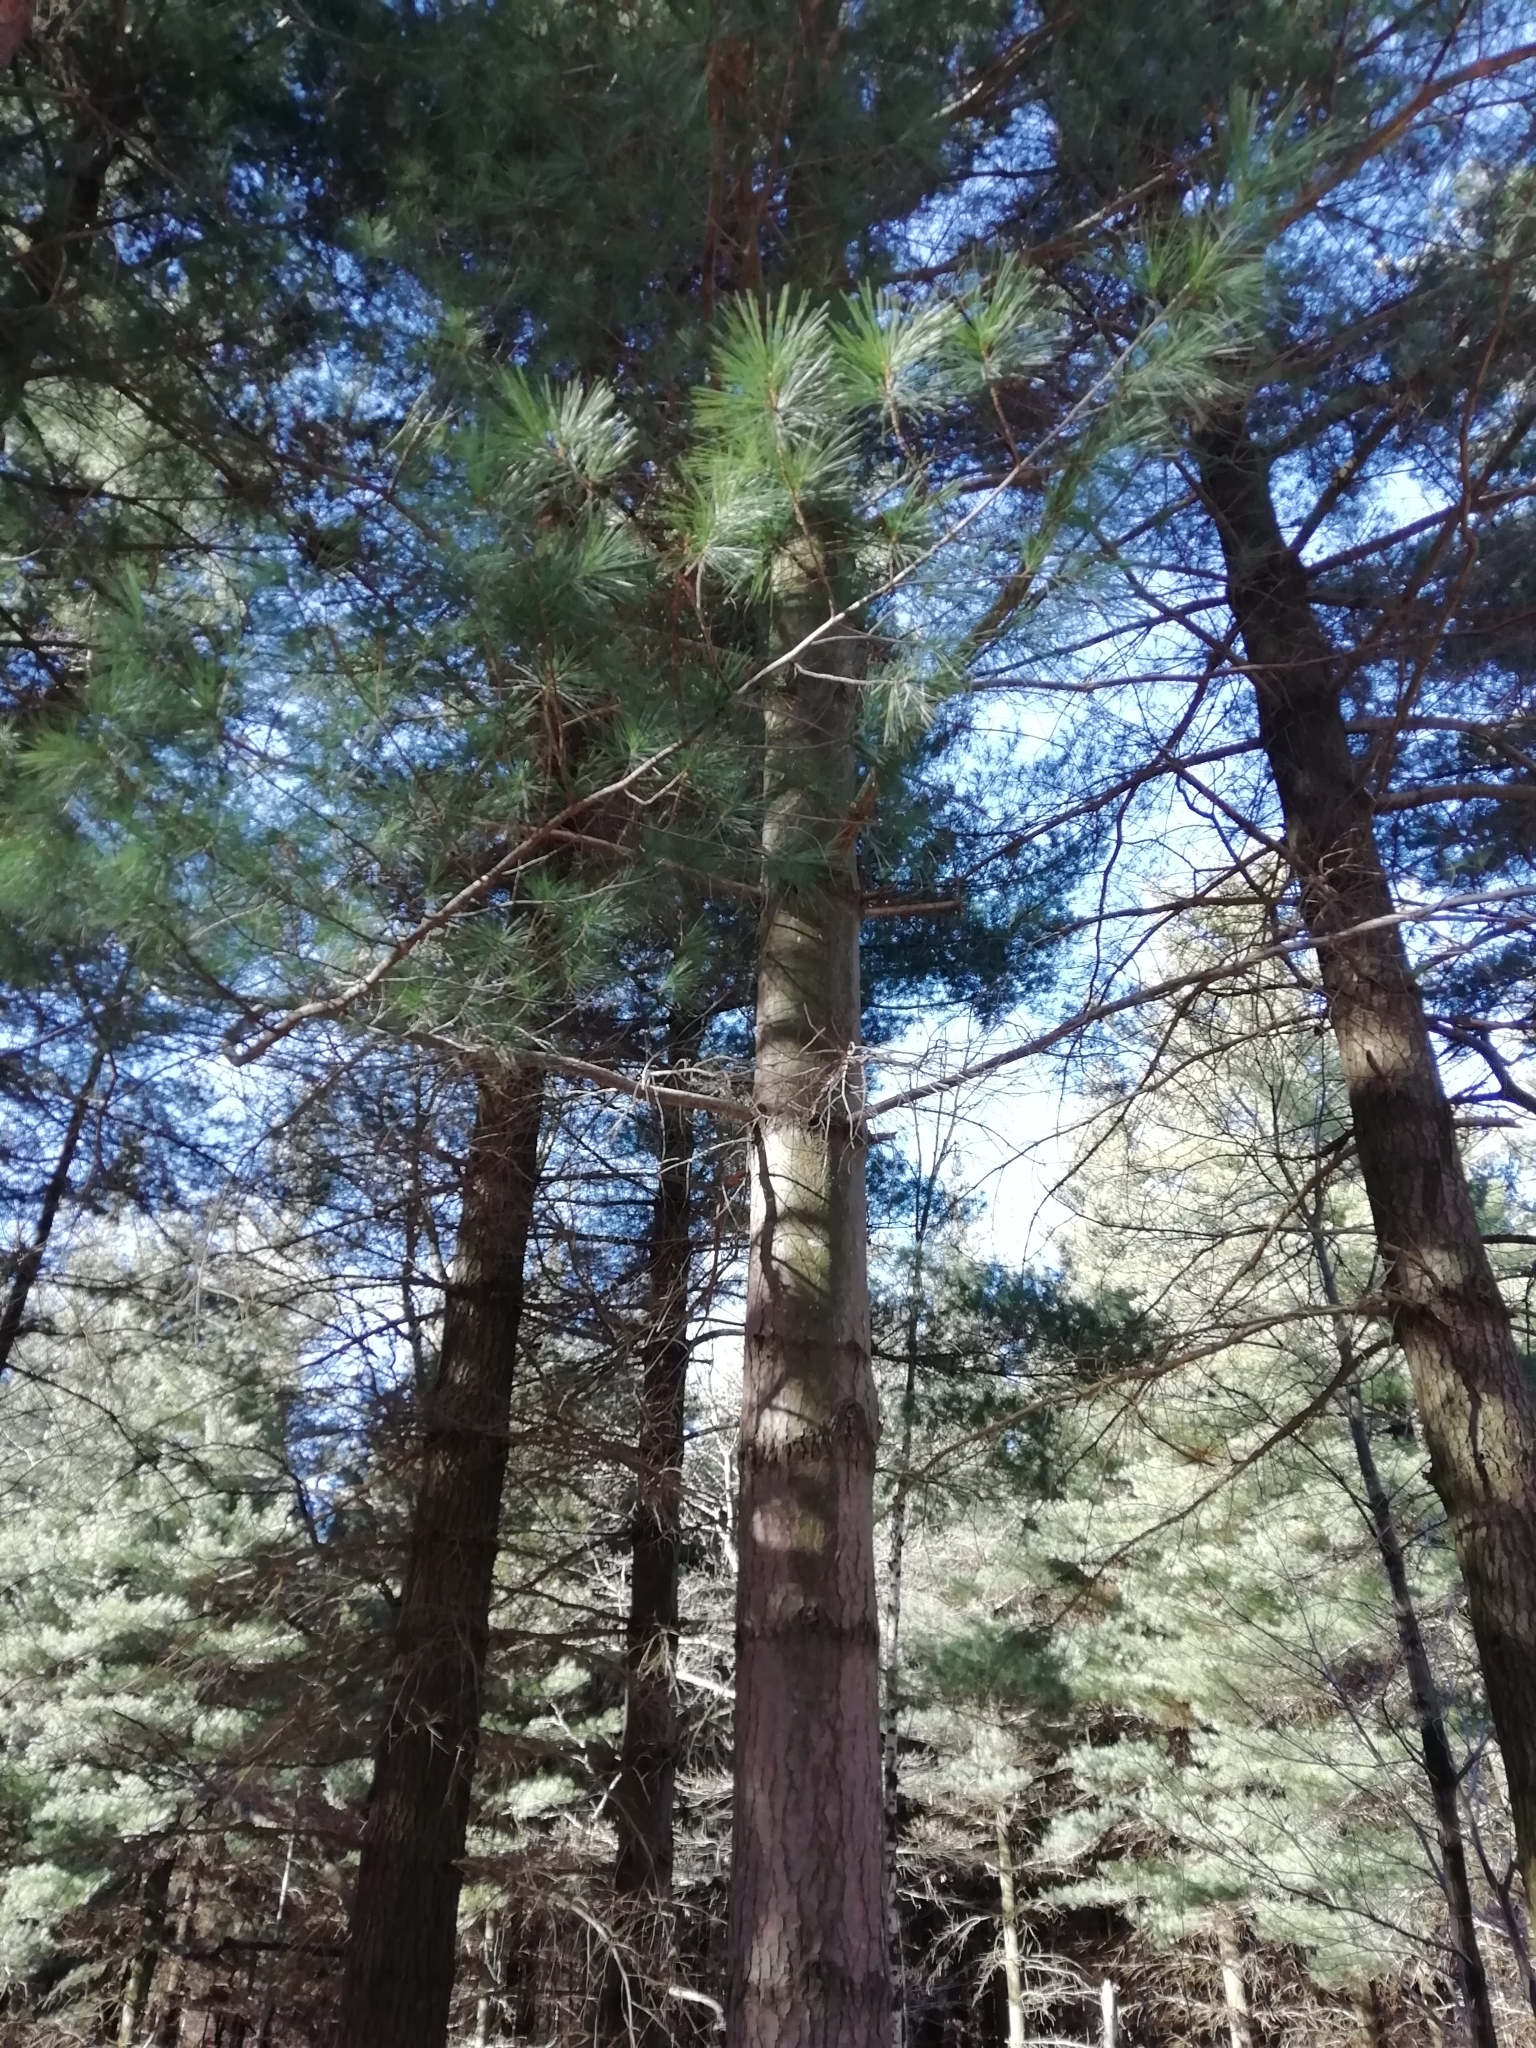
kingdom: Plantae
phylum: Tracheophyta
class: Pinopsida
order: Pinales
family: Pinaceae
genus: Pinus
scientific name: Pinus strobus
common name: Weymouth pine
